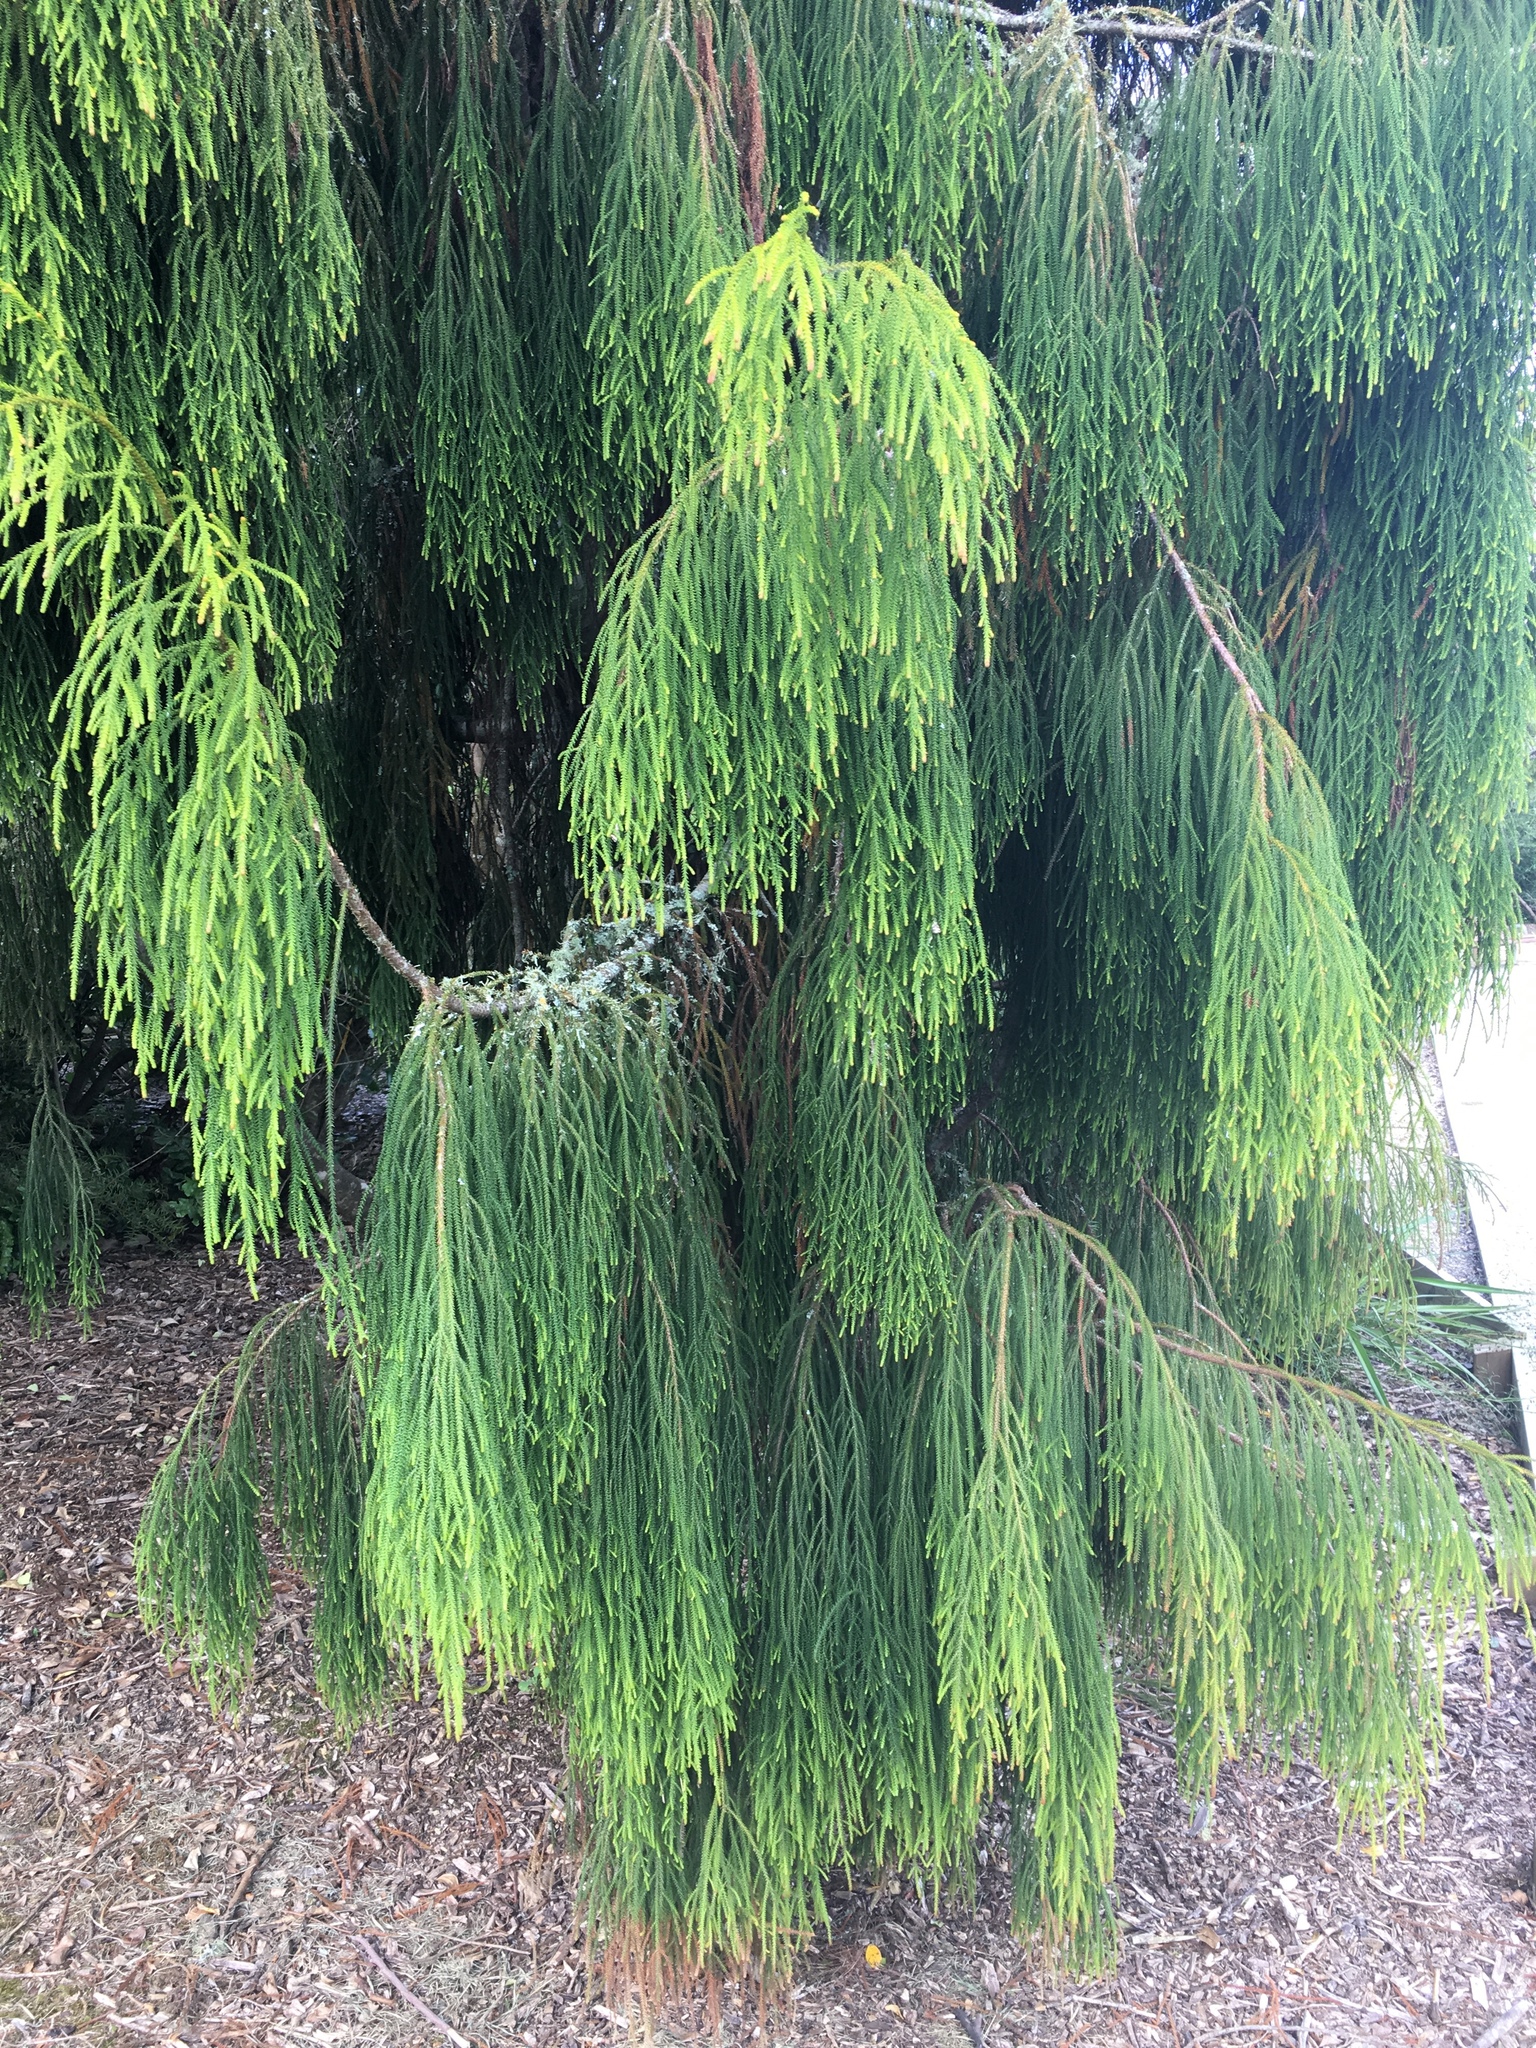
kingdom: Plantae
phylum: Tracheophyta
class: Pinopsida
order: Pinales
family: Podocarpaceae
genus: Dacrydium
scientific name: Dacrydium cupressinum
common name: Red pine
